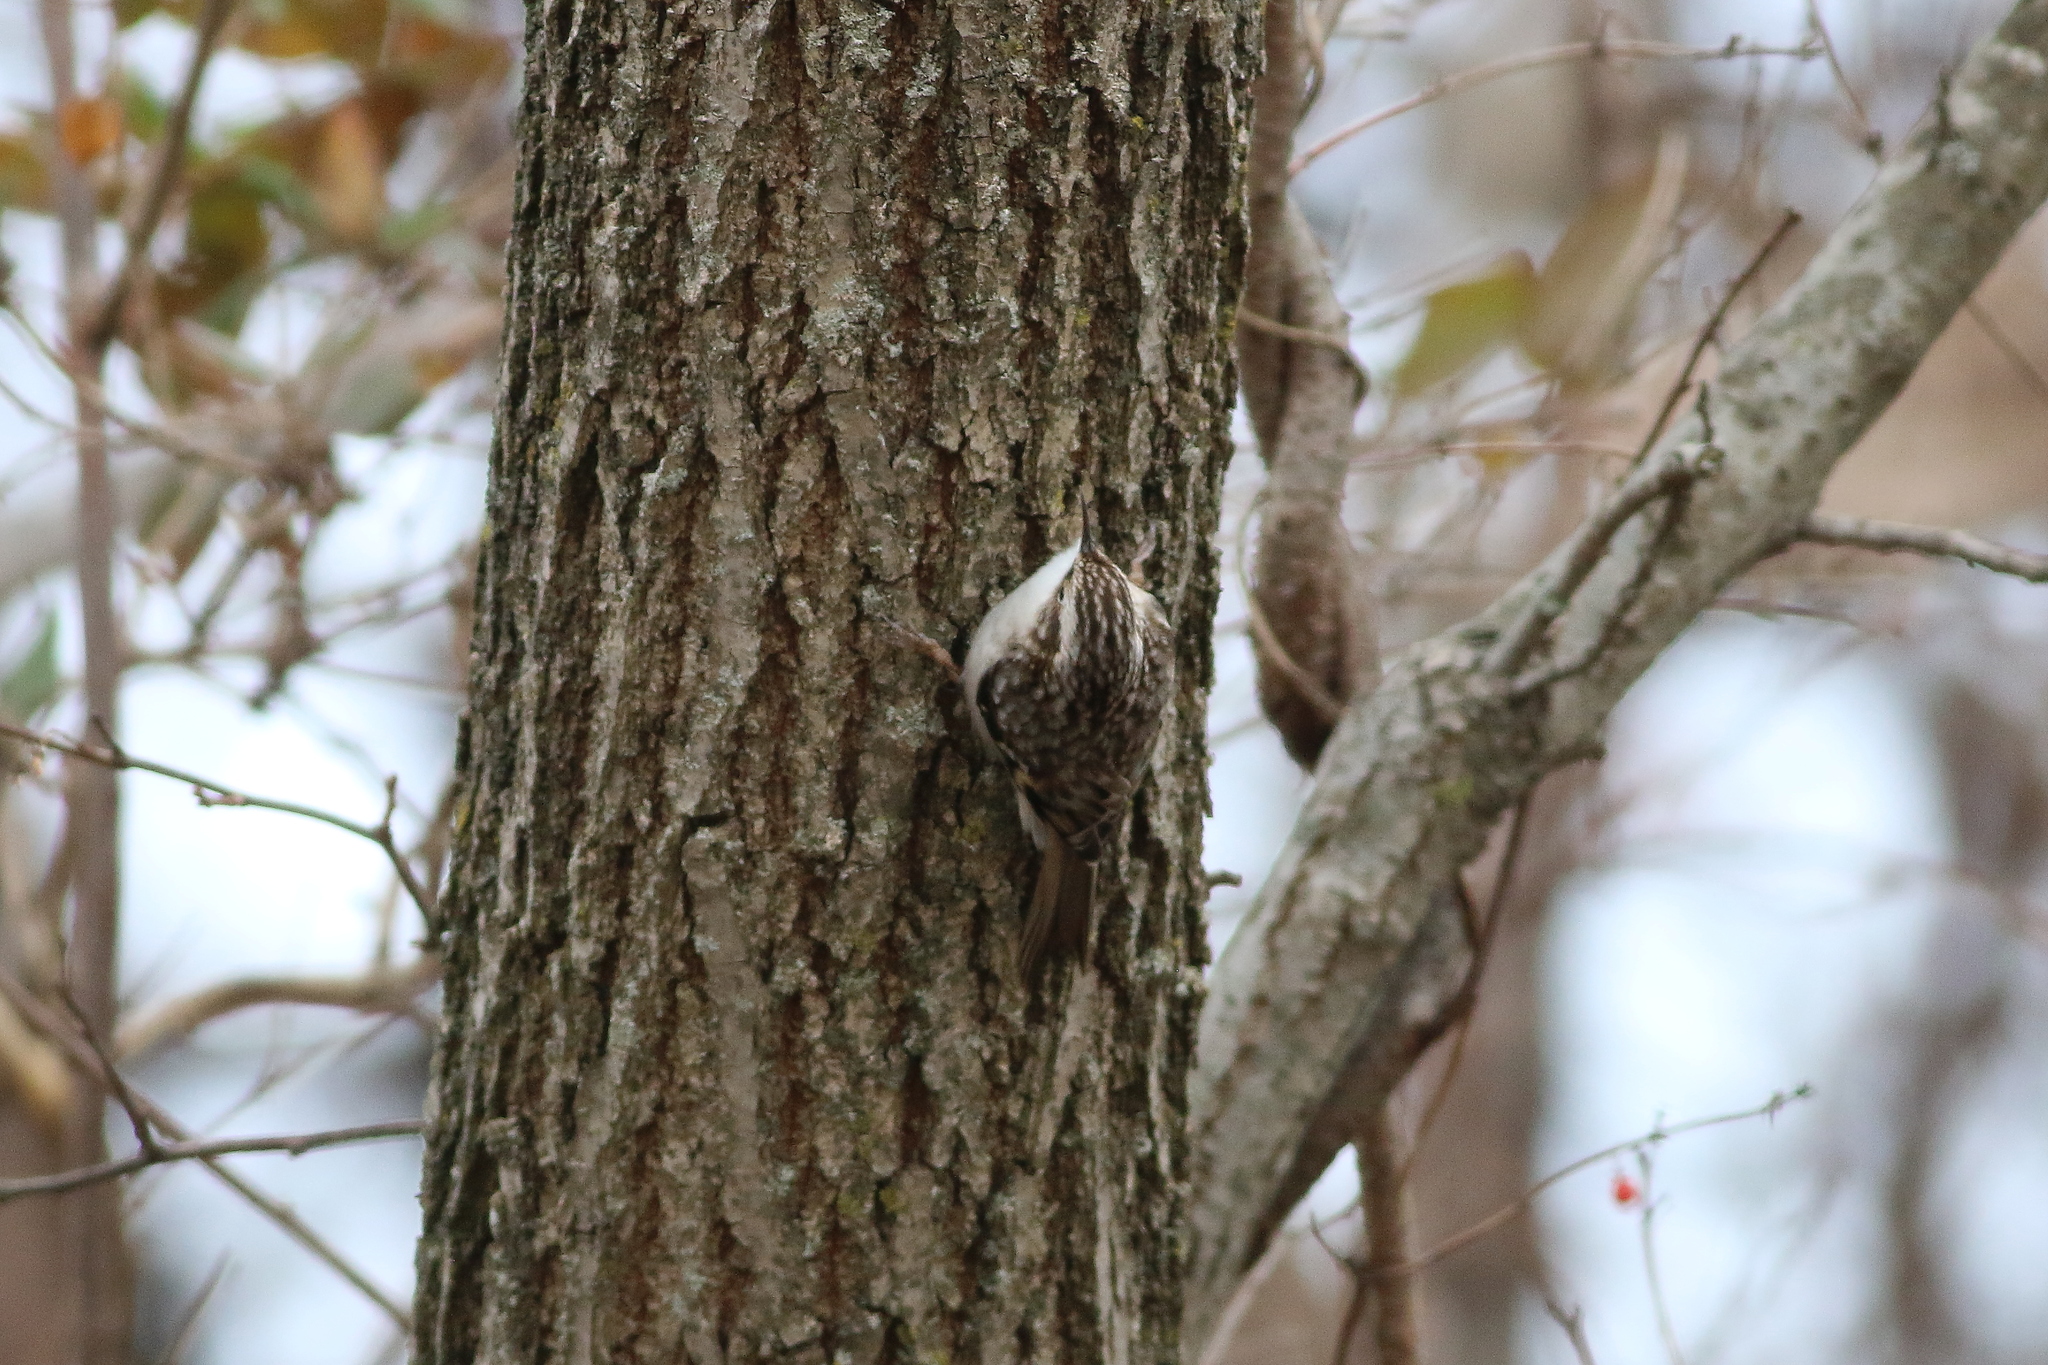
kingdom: Animalia
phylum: Chordata
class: Aves
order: Passeriformes
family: Certhiidae
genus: Certhia
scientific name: Certhia americana
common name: Brown creeper
